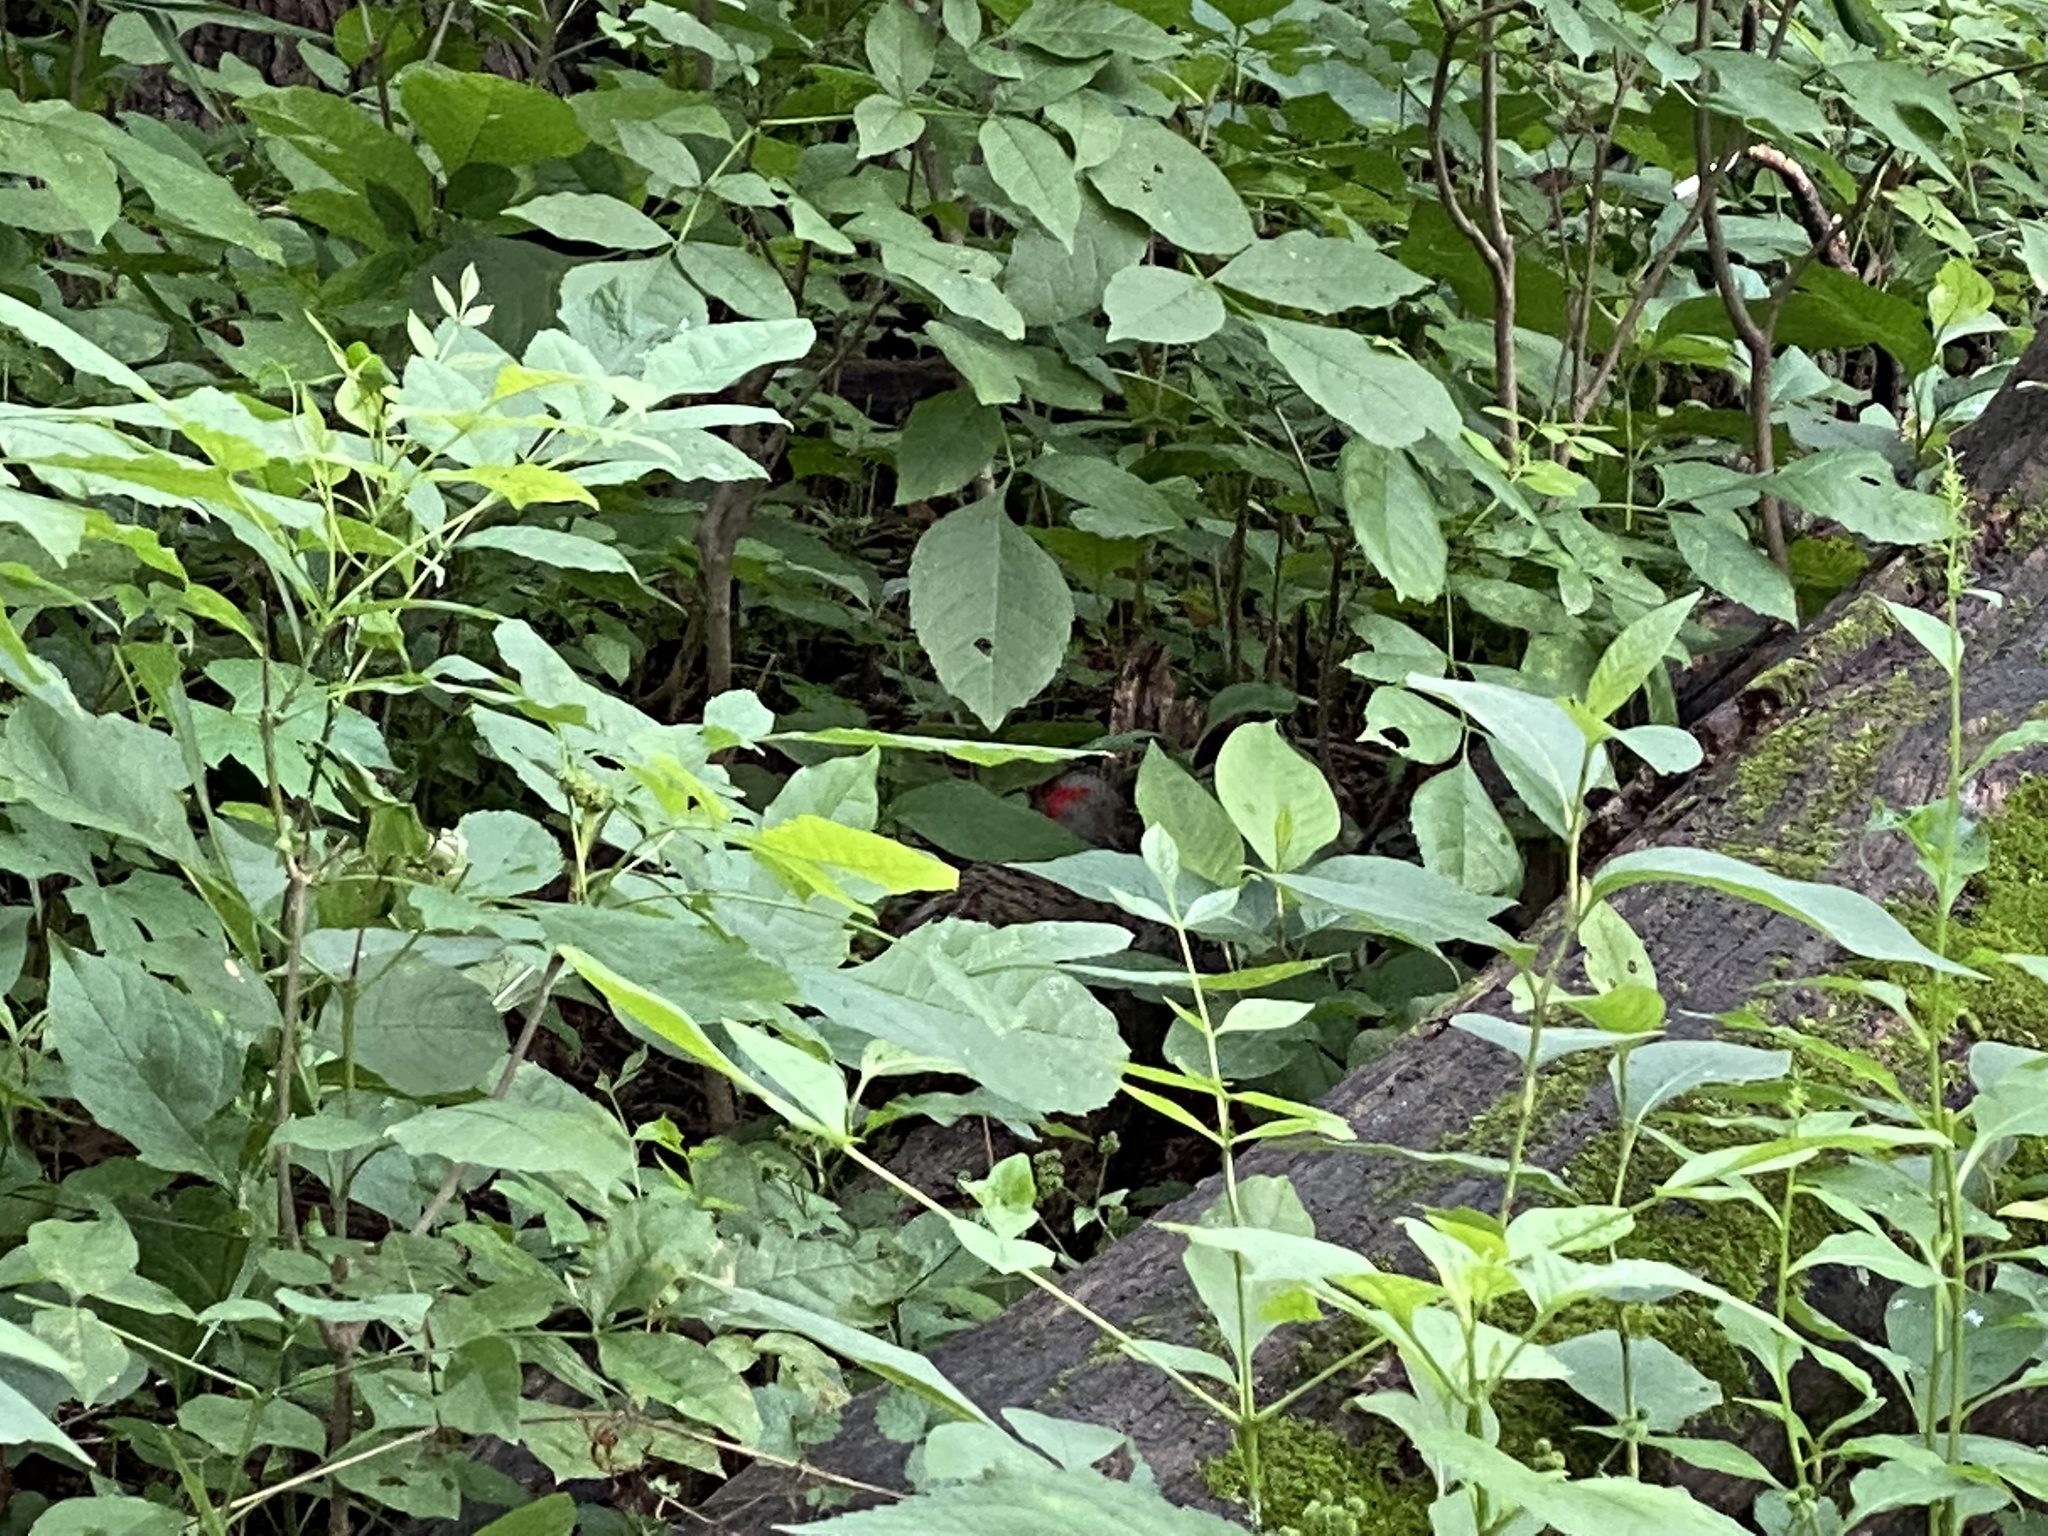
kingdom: Animalia
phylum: Chordata
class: Aves
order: Piciformes
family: Picidae
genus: Colaptes
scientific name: Colaptes auratus
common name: Northern flicker
